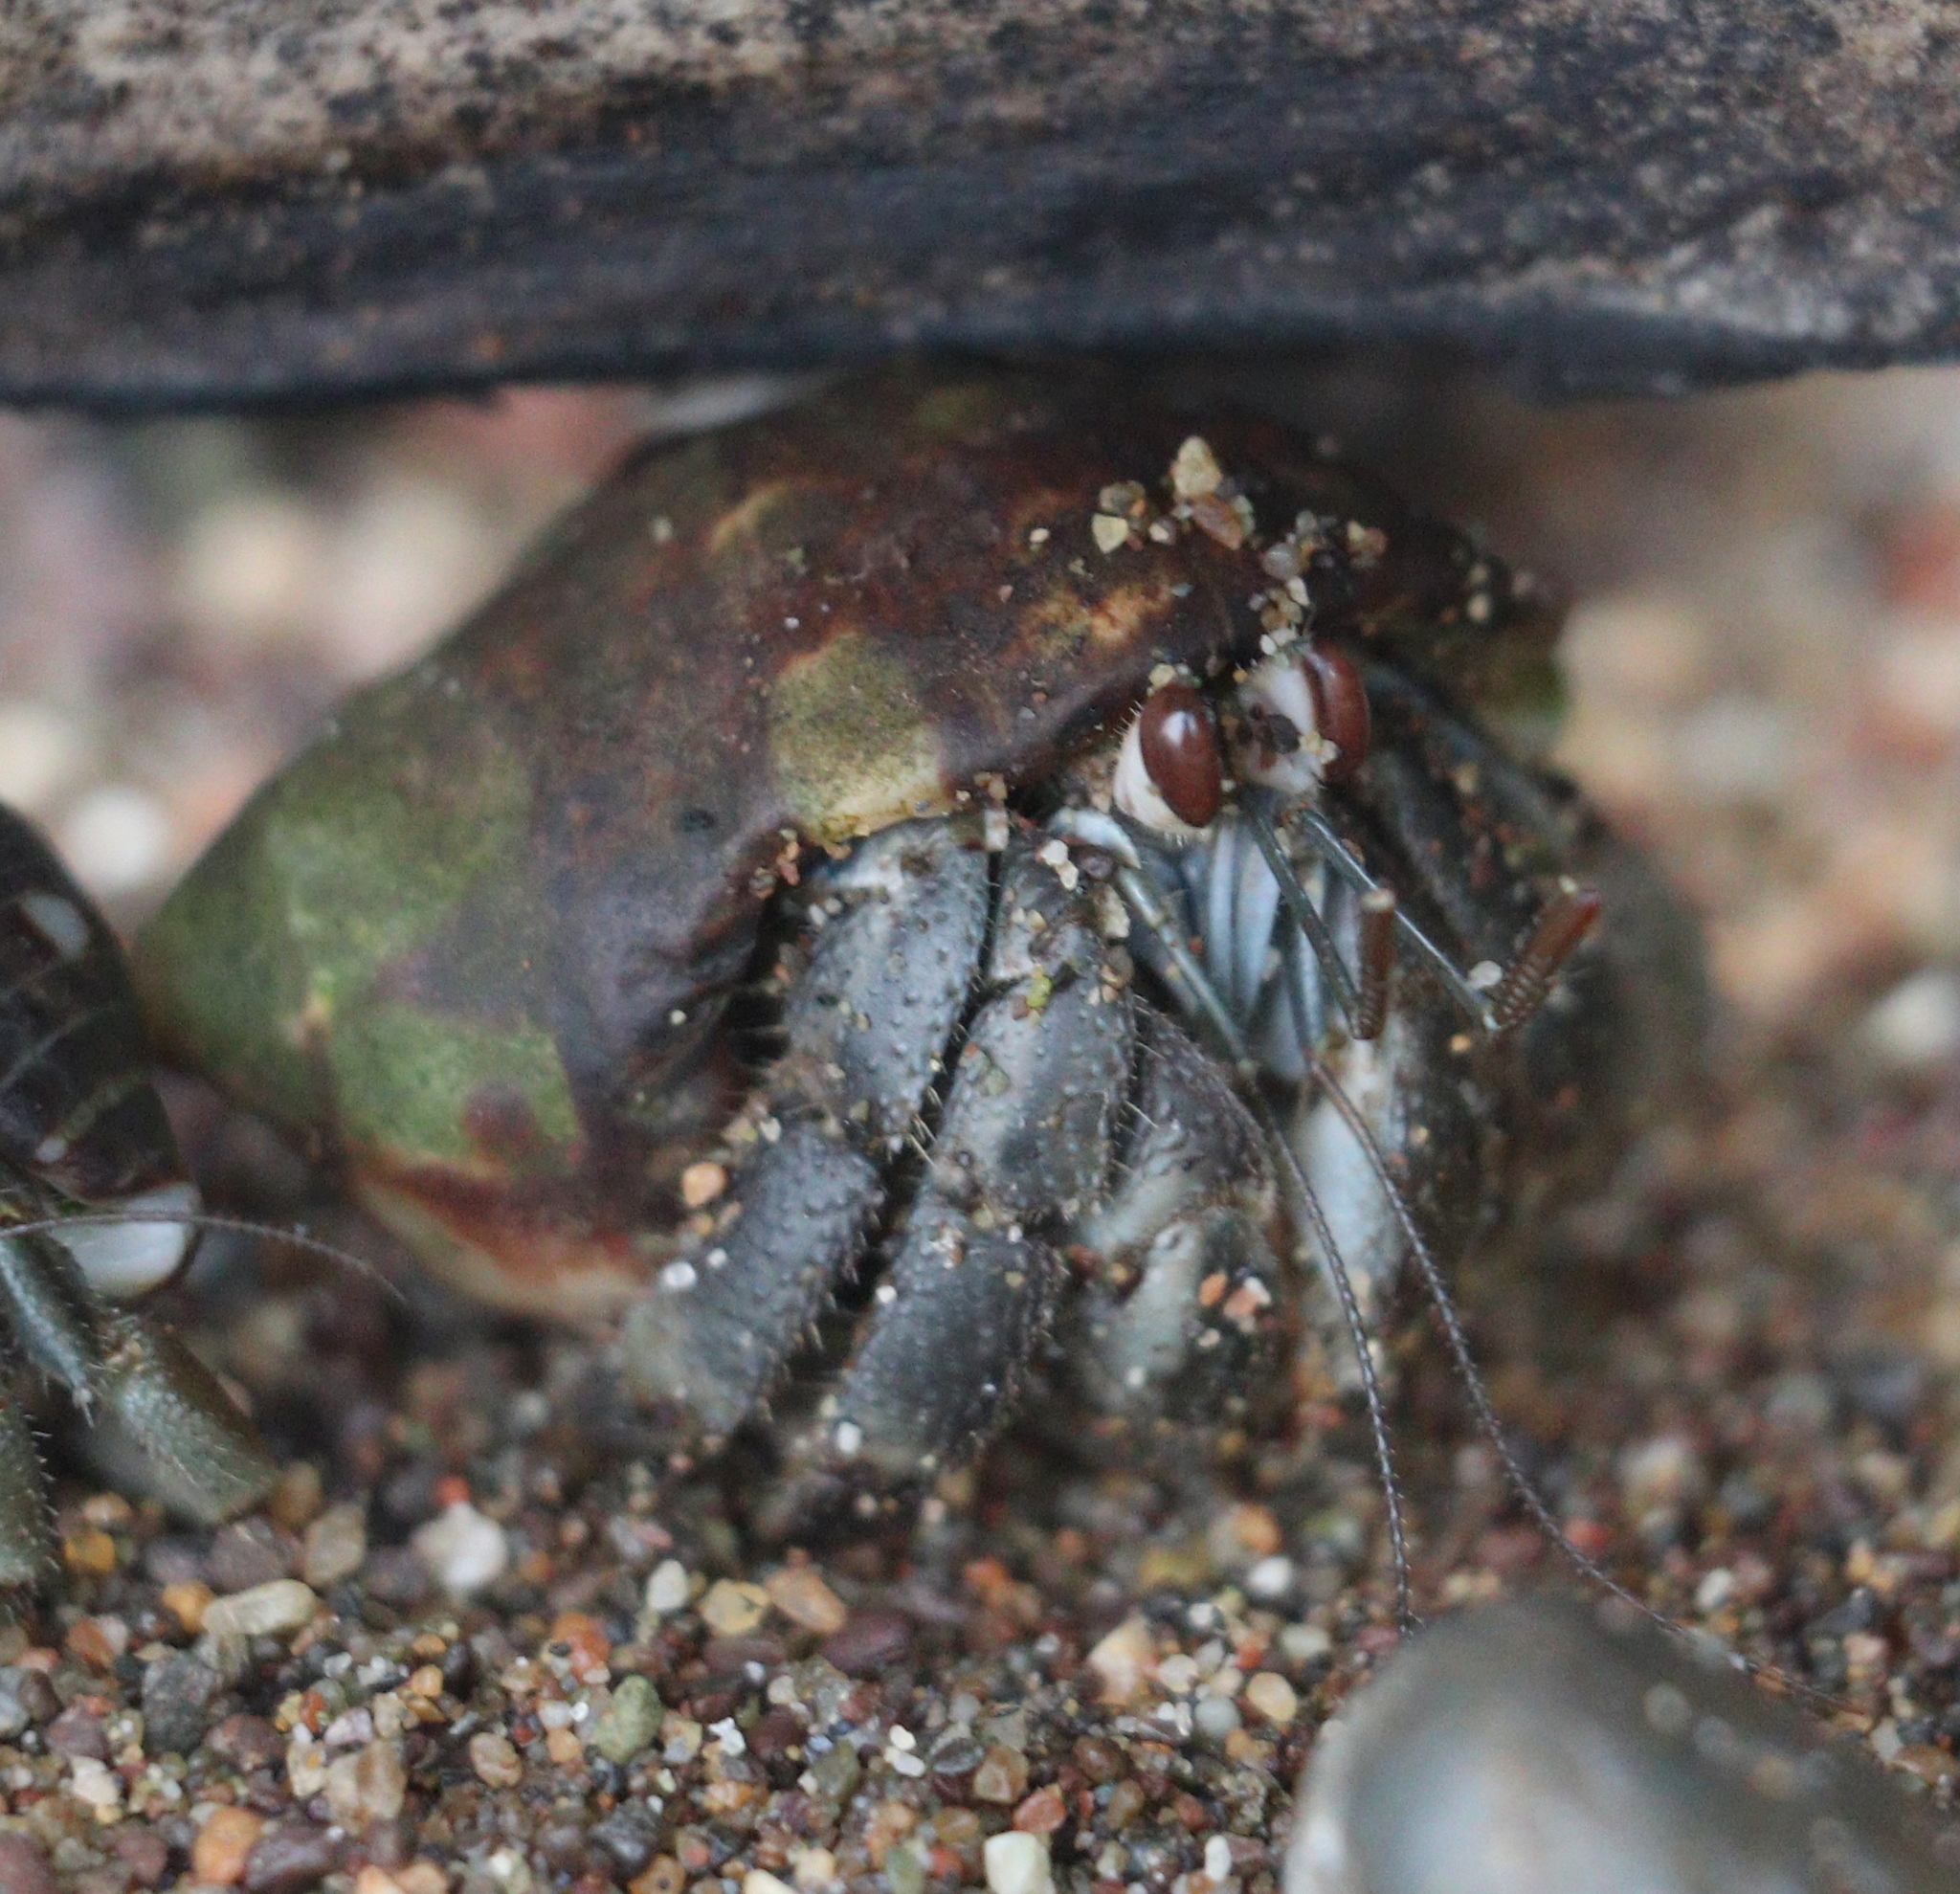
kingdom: Animalia
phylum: Arthropoda
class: Malacostraca
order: Decapoda
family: Coenobitidae
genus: Coenobita
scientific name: Coenobita compressus
